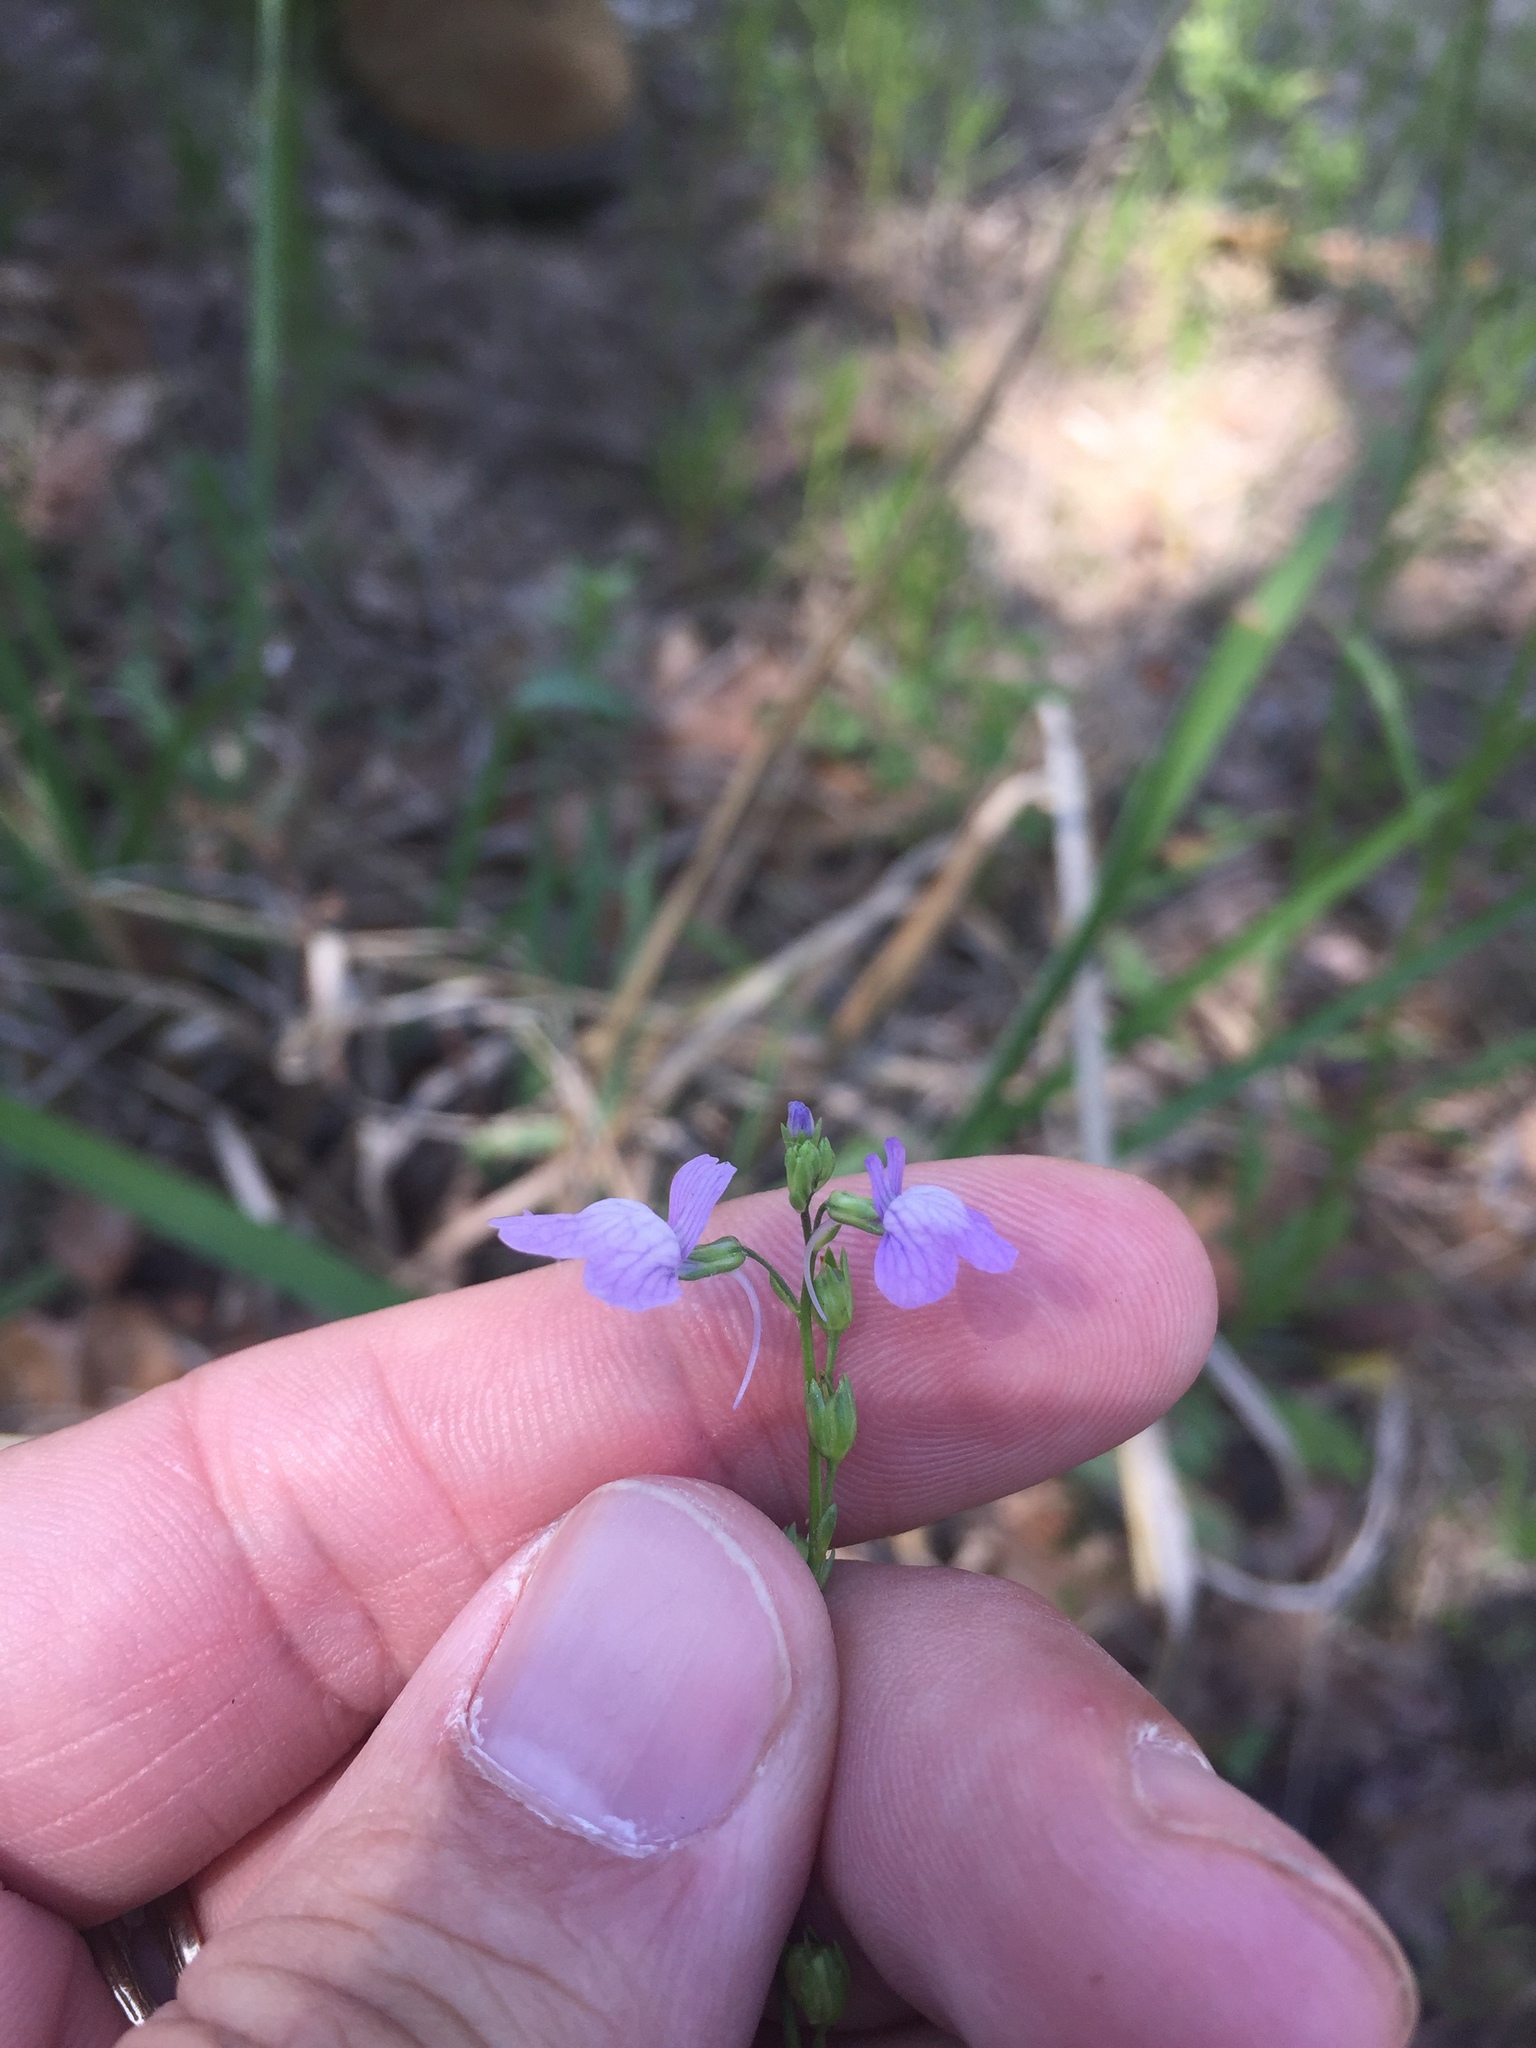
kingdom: Plantae
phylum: Tracheophyta
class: Magnoliopsida
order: Lamiales
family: Plantaginaceae
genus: Nuttallanthus
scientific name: Nuttallanthus texanus
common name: Texas toadflax
